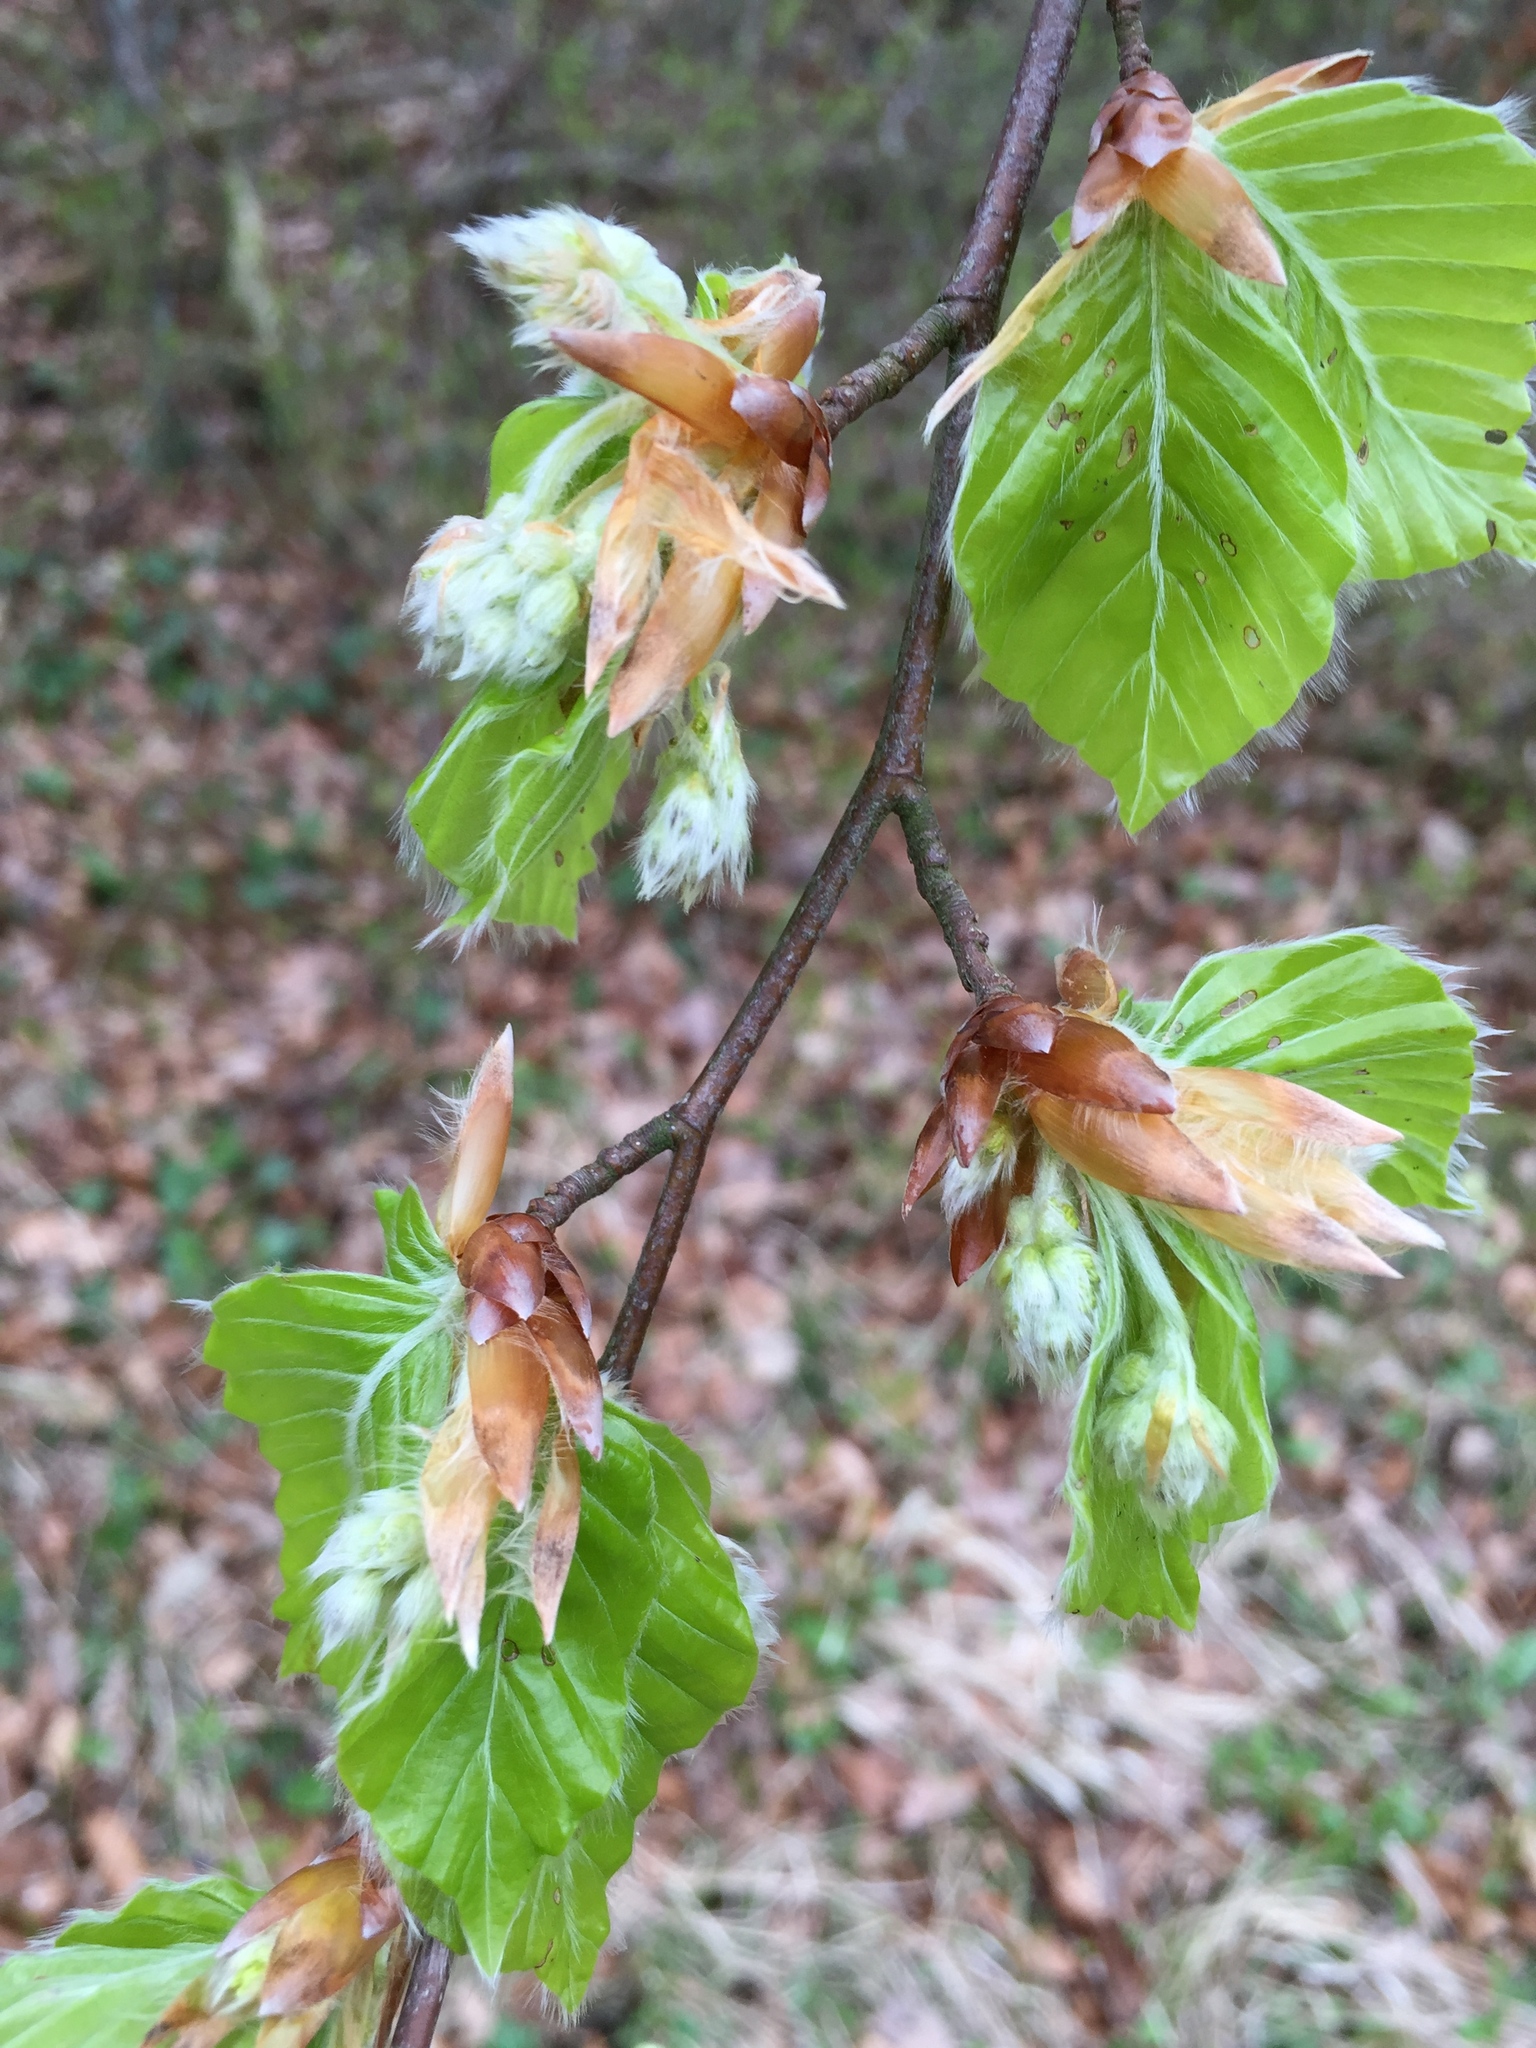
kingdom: Plantae
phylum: Tracheophyta
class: Magnoliopsida
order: Fagales
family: Fagaceae
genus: Fagus
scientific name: Fagus sylvatica
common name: Beech
